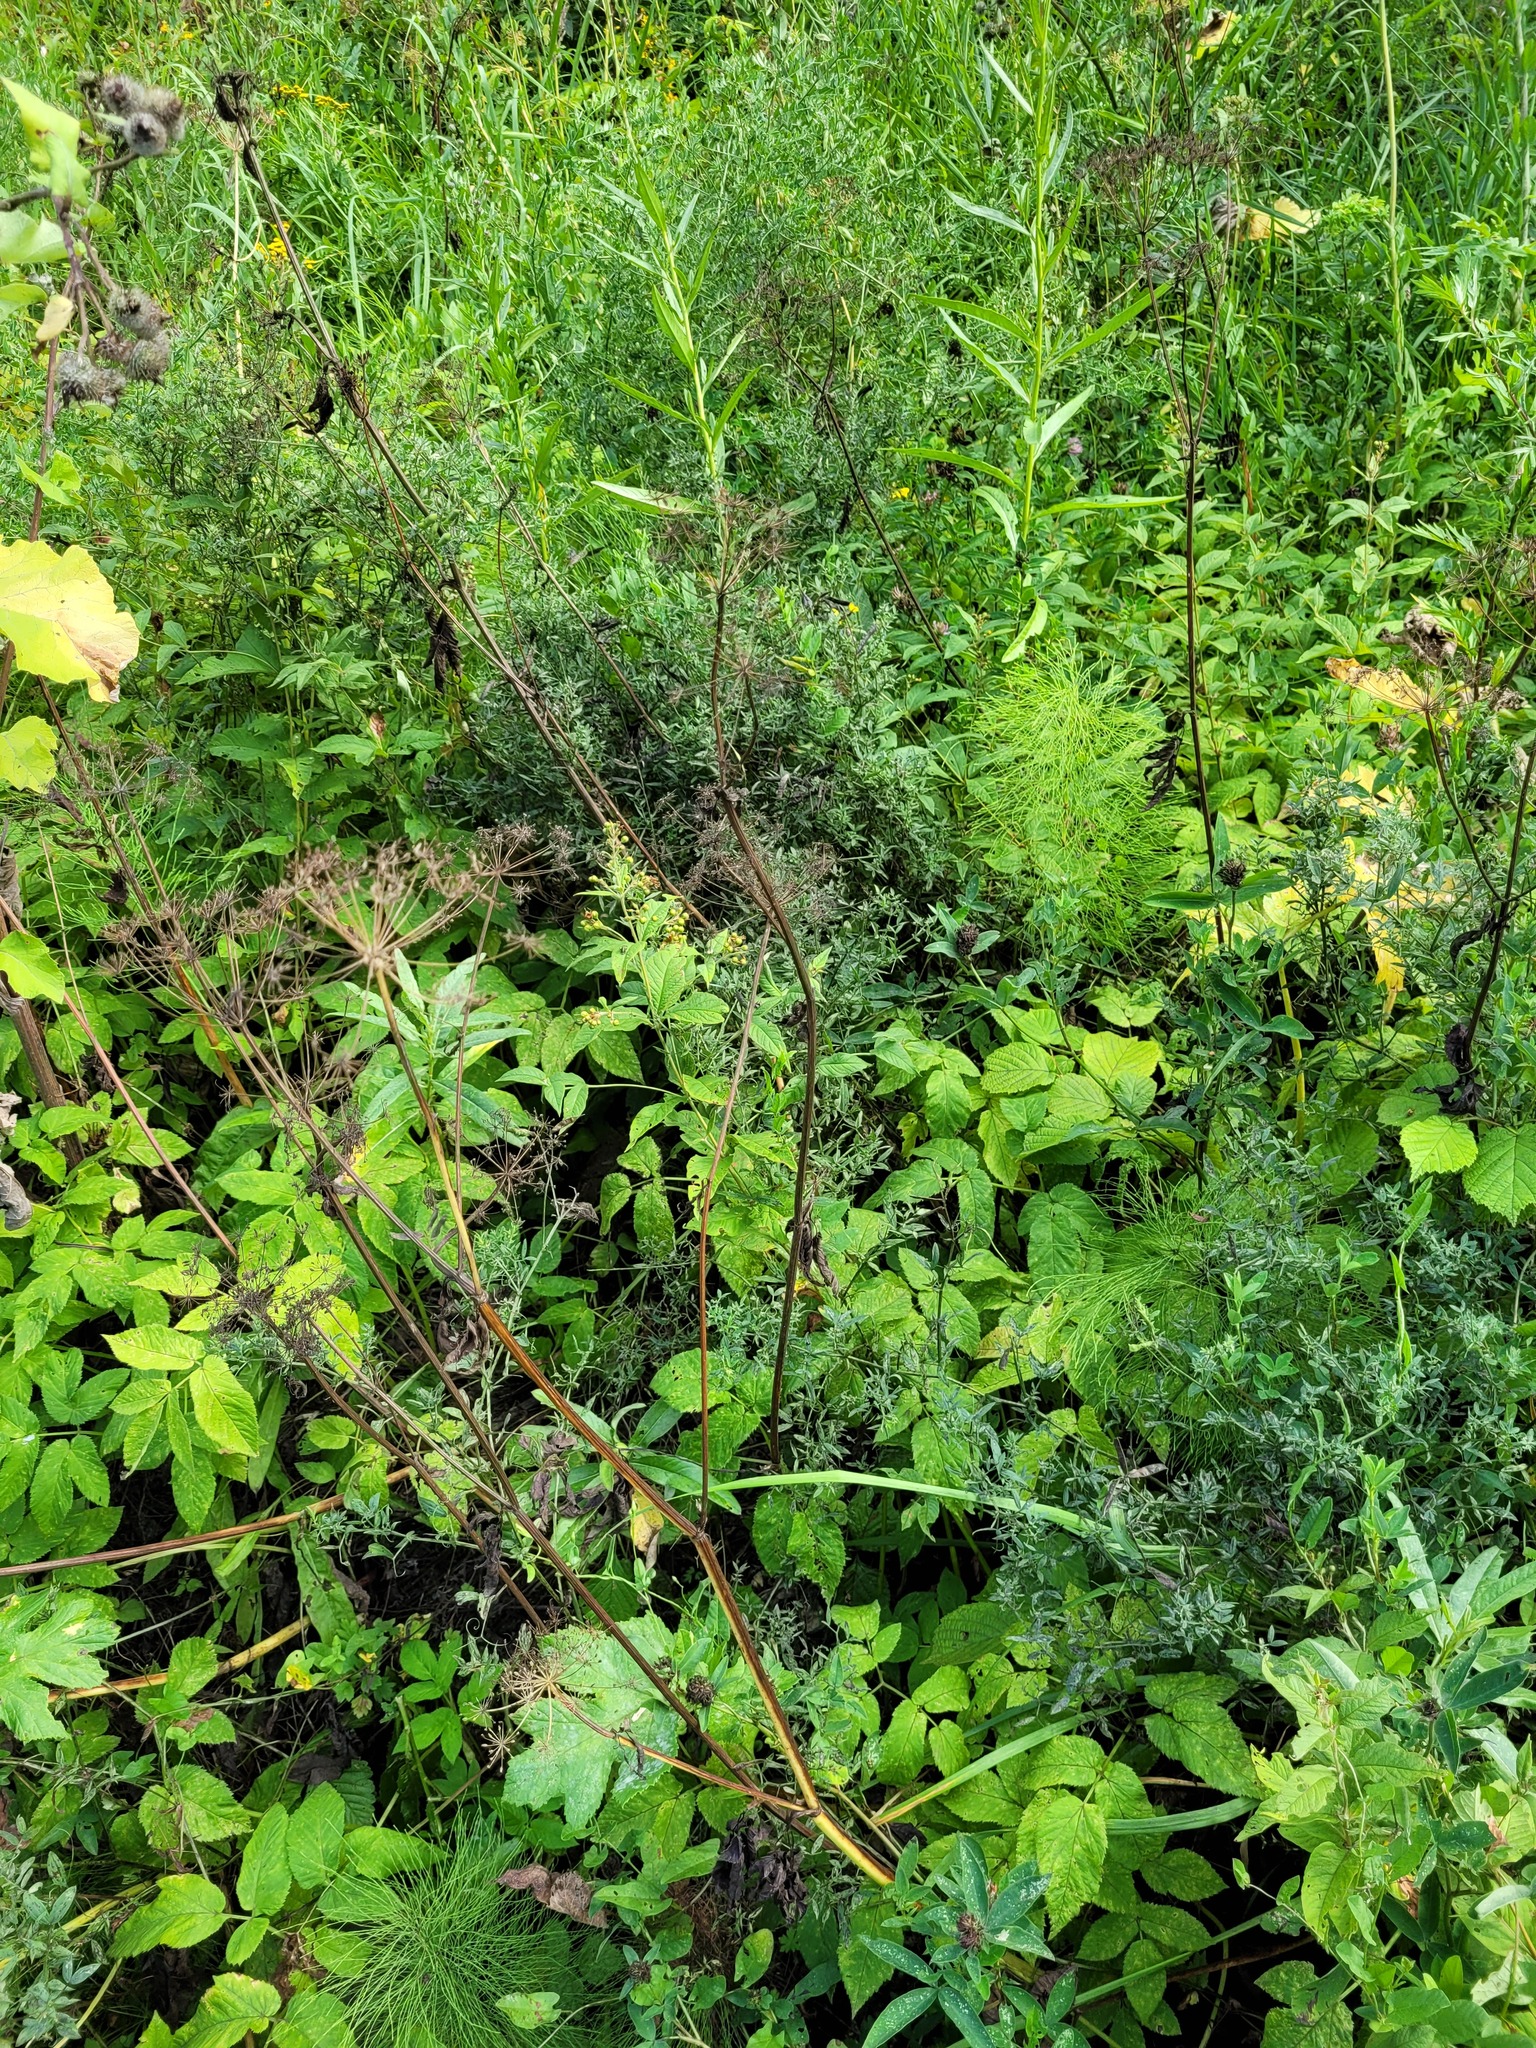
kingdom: Plantae
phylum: Tracheophyta
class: Magnoliopsida
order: Ericales
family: Primulaceae
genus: Lysimachia
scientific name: Lysimachia vulgaris
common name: Yellow loosestrife
